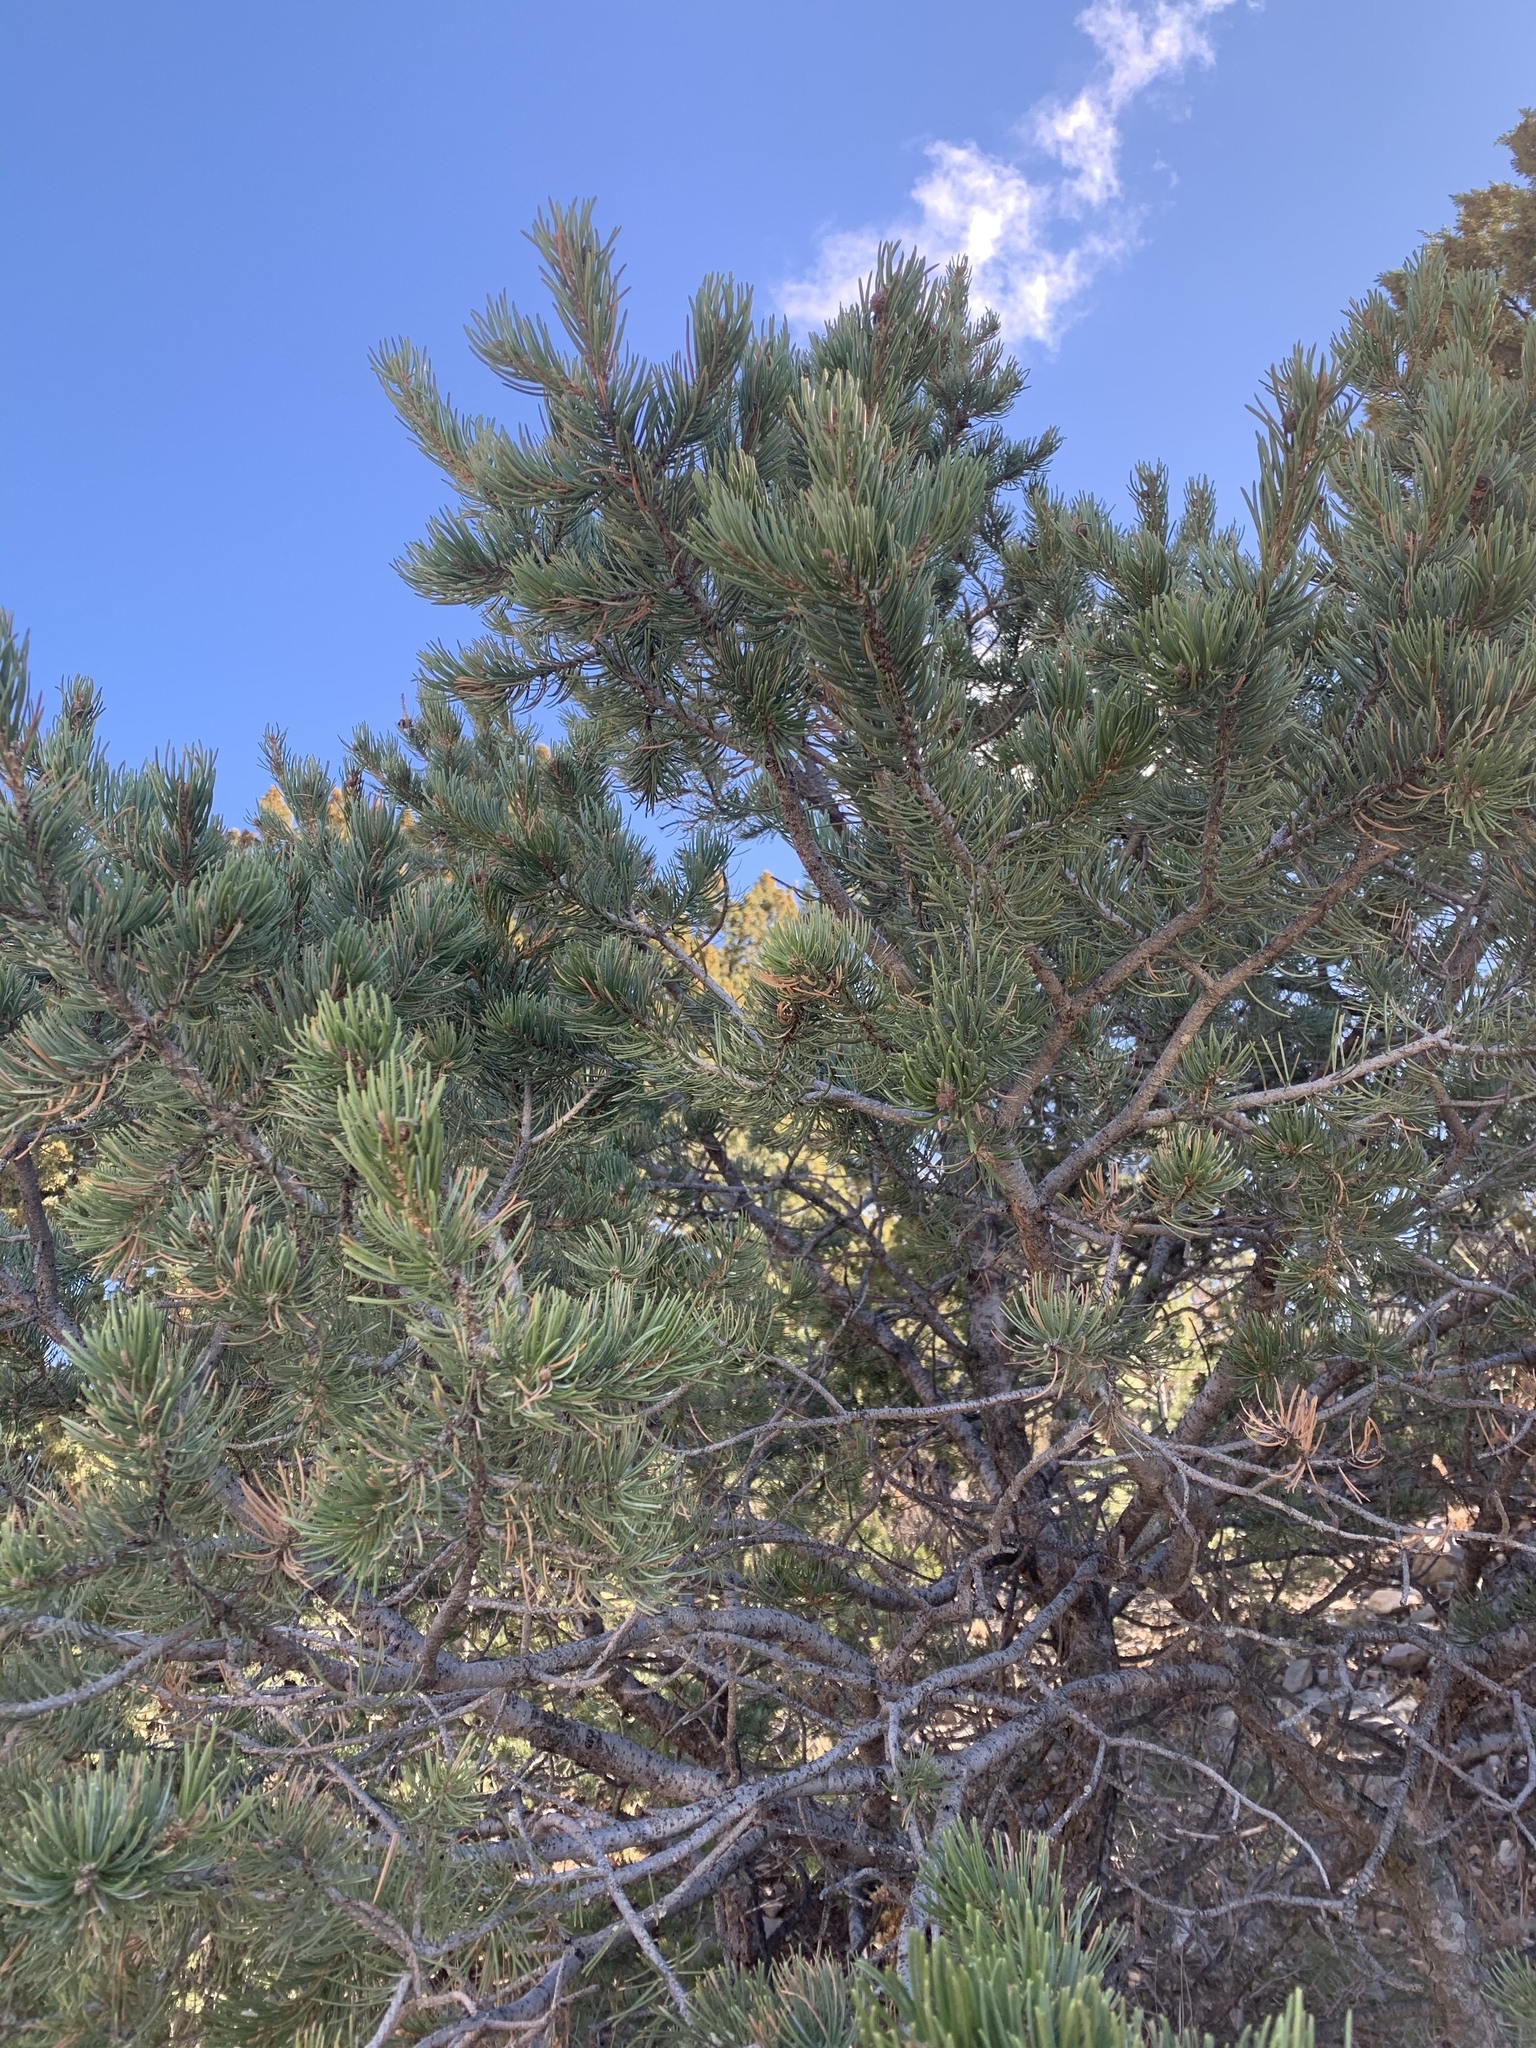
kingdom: Plantae
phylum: Tracheophyta
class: Pinopsida
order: Pinales
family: Pinaceae
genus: Pinus
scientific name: Pinus edulis
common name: Colorado pinyon
